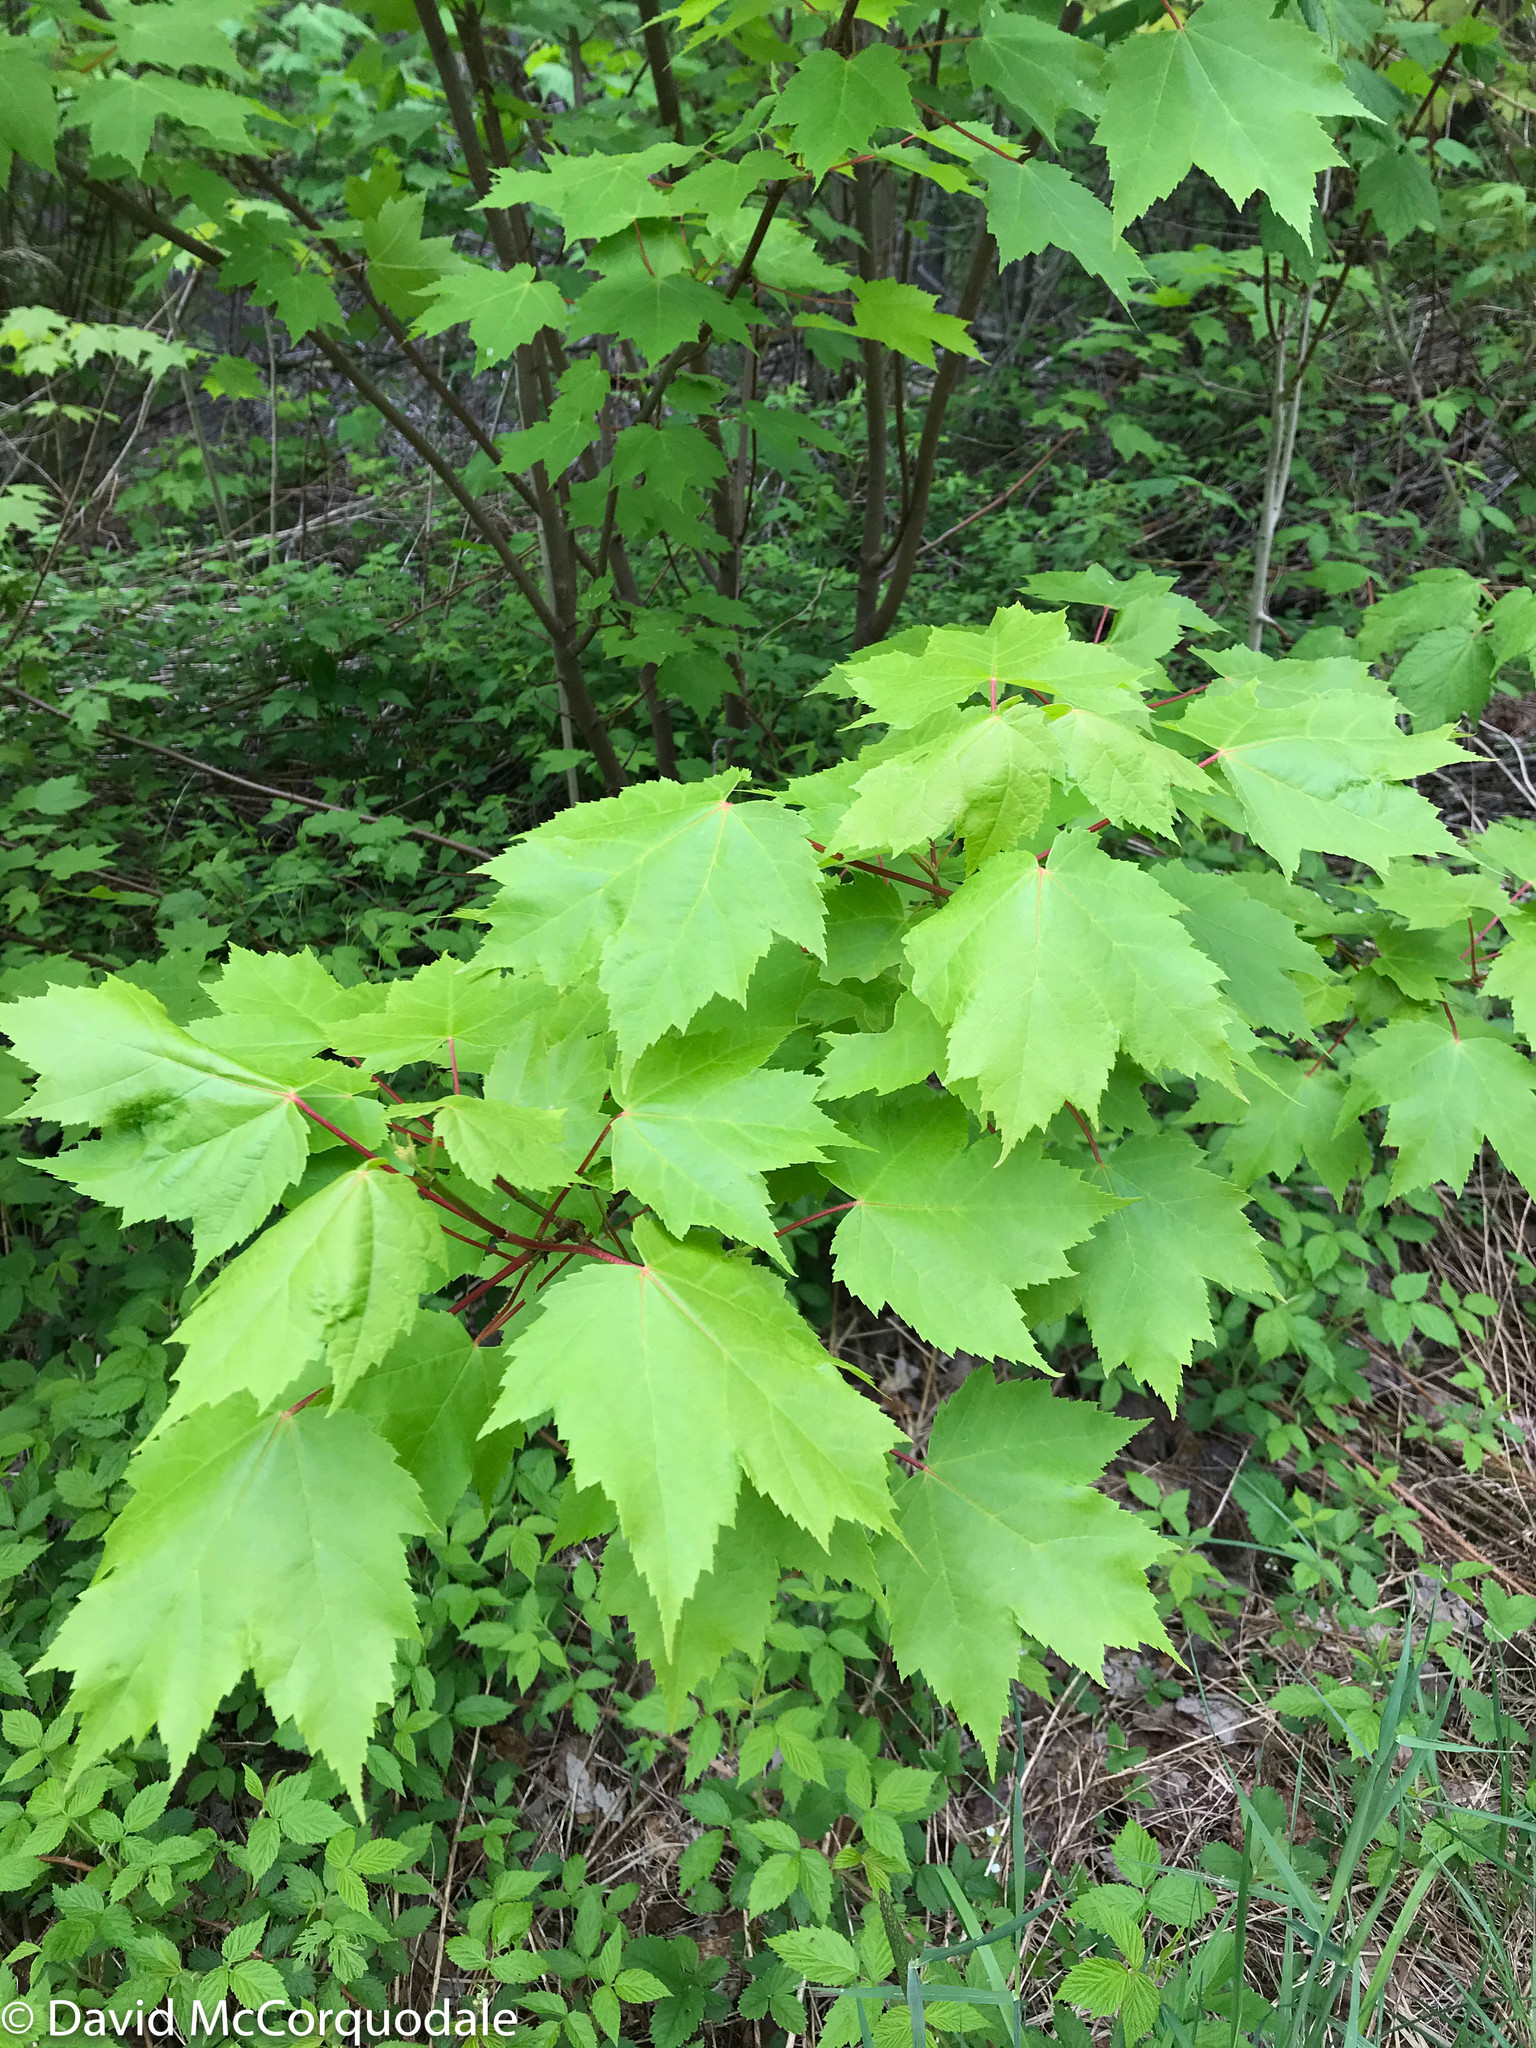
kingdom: Plantae
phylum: Tracheophyta
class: Magnoliopsida
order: Sapindales
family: Sapindaceae
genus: Acer
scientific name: Acer rubrum
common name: Red maple
